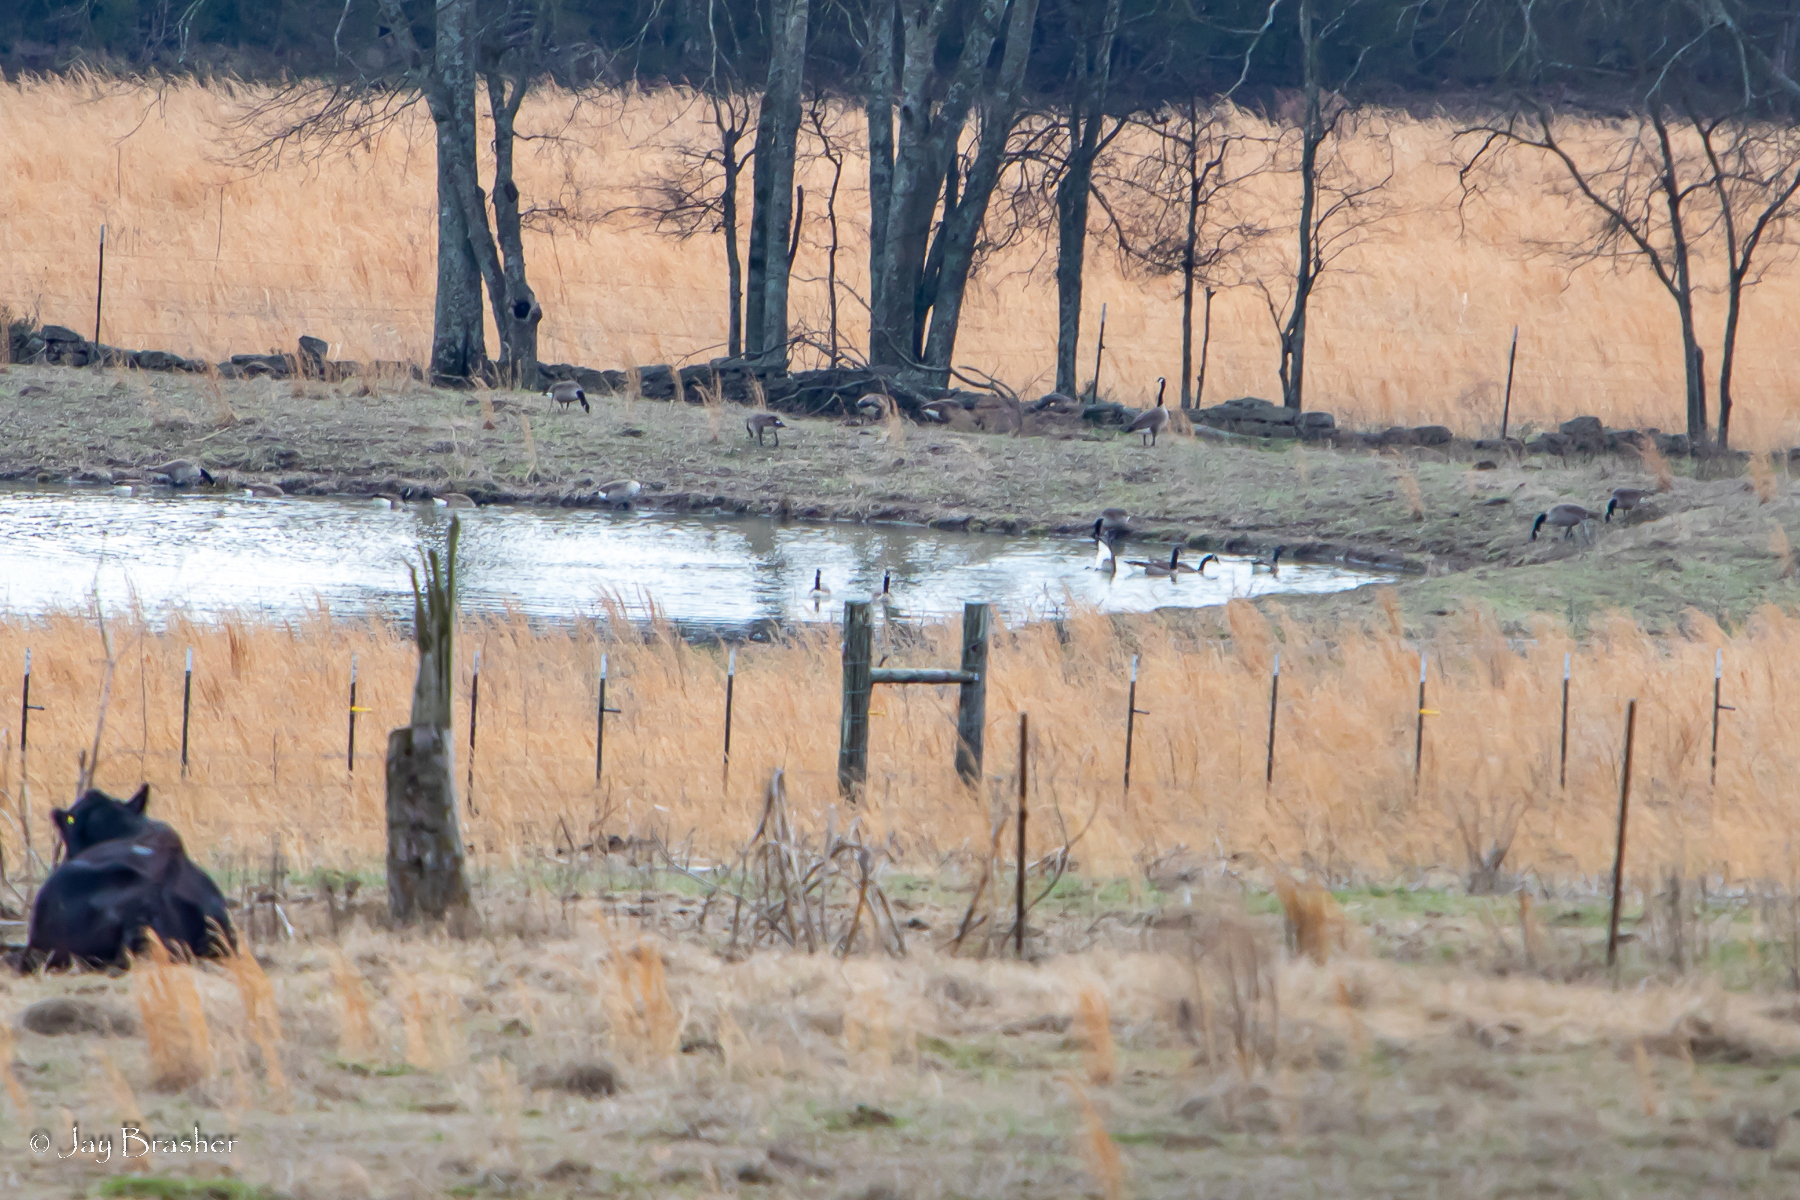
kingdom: Animalia
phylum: Chordata
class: Aves
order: Anseriformes
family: Anatidae
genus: Branta
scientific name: Branta canadensis
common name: Canada goose
